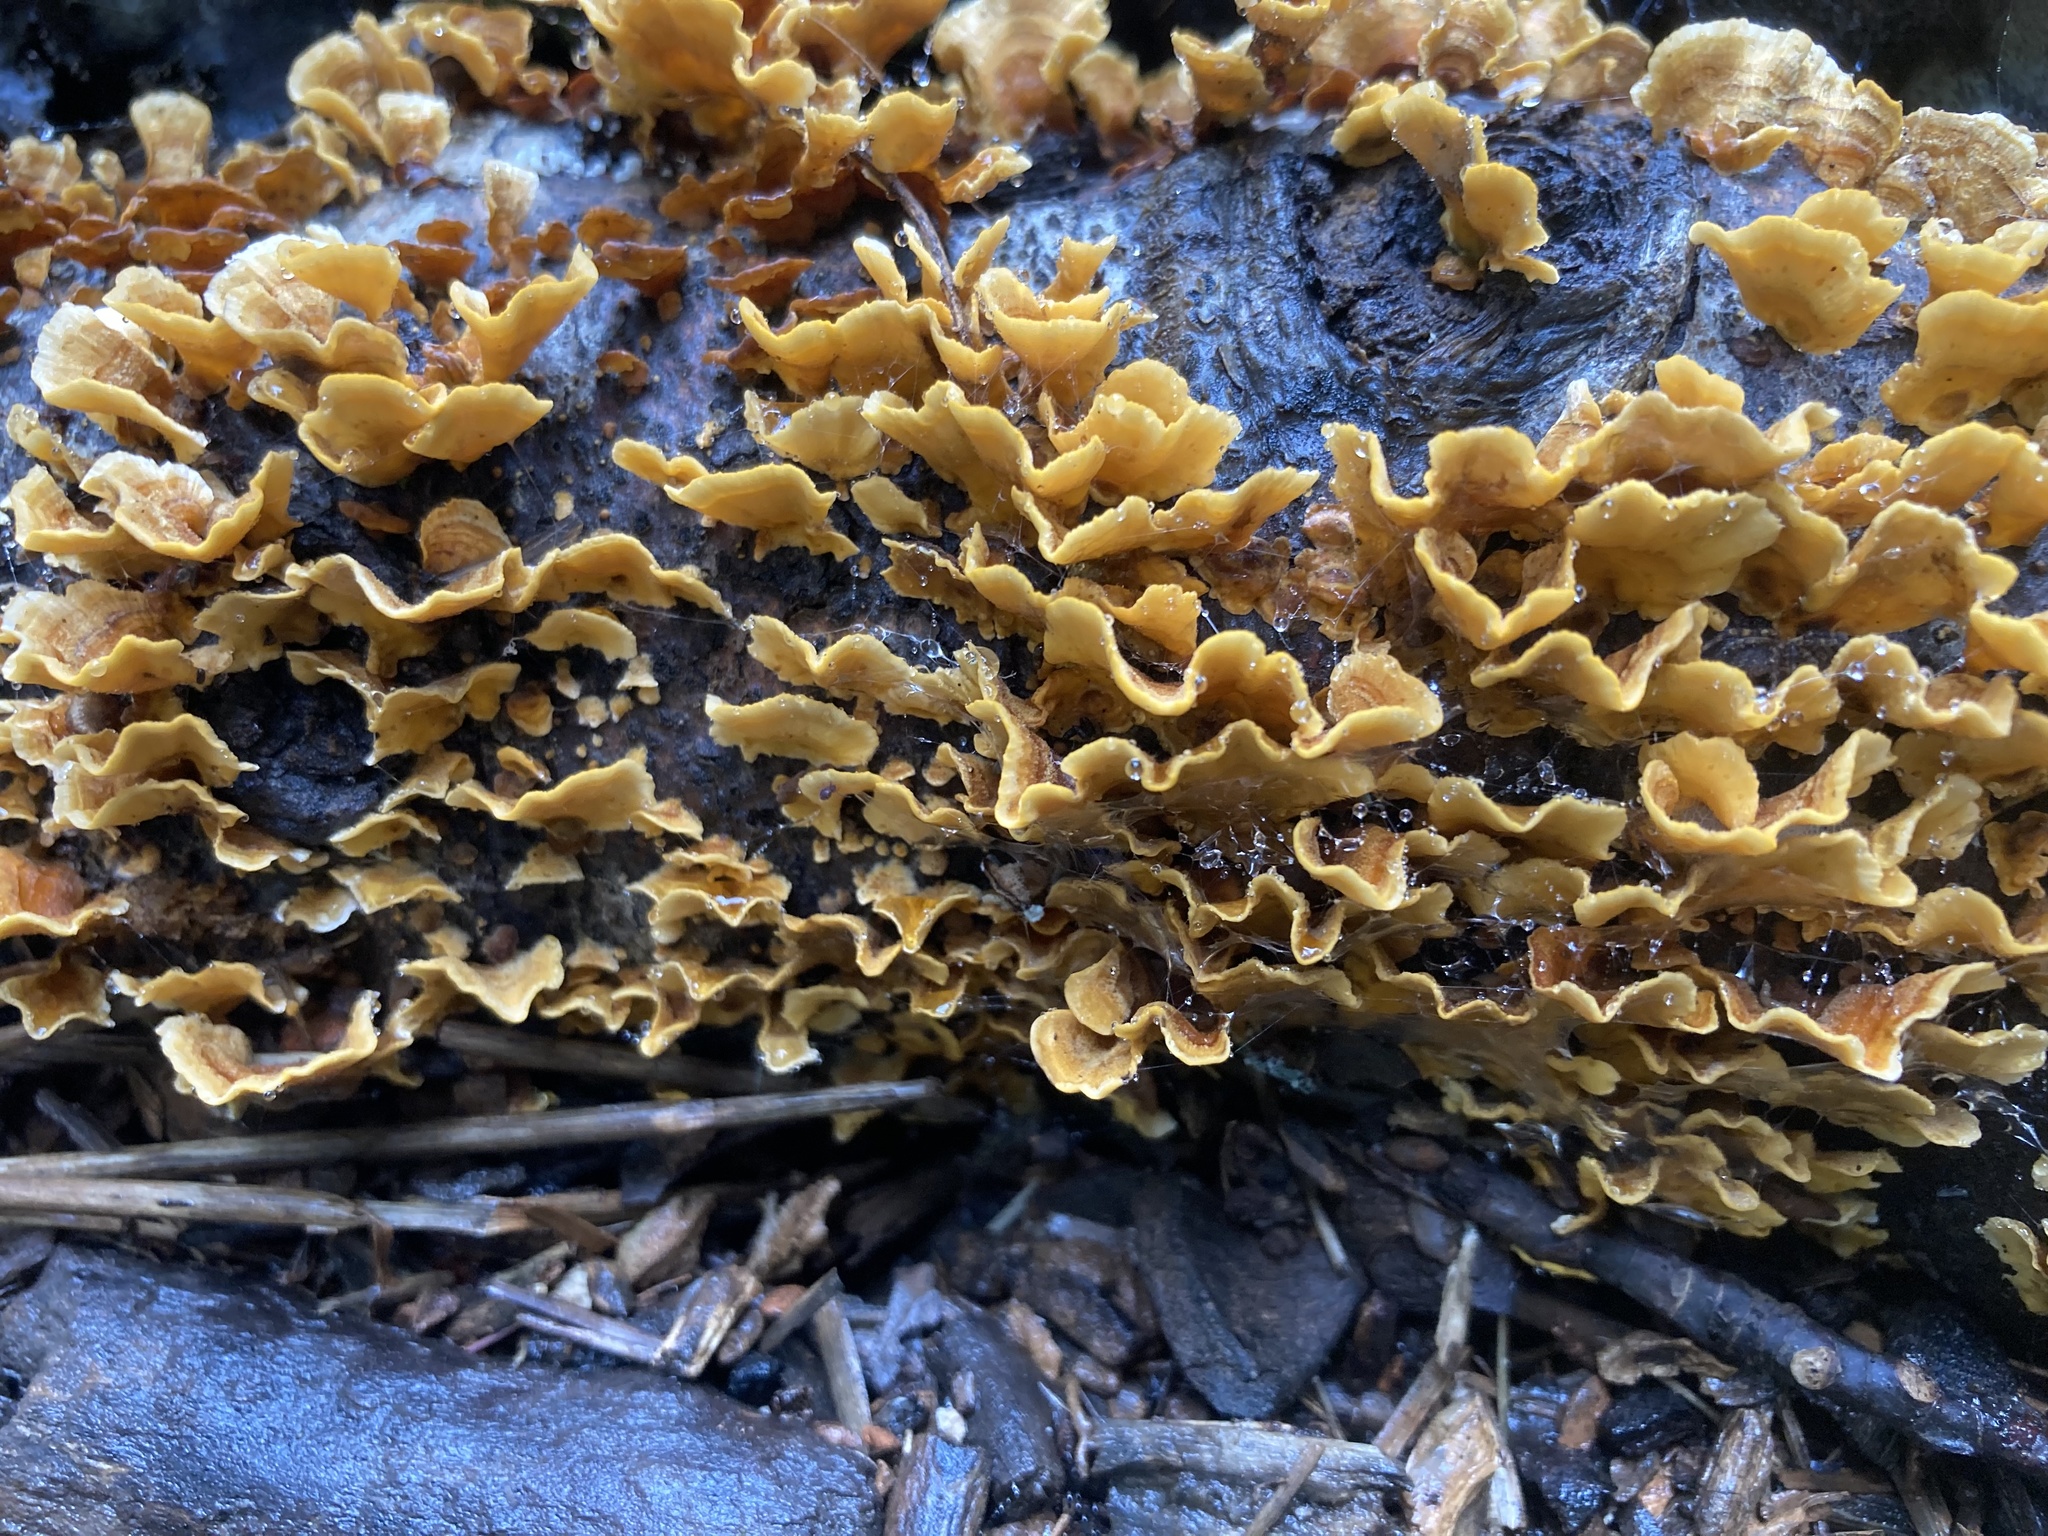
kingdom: Fungi
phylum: Basidiomycota
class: Agaricomycetes
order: Russulales
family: Stereaceae
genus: Stereum
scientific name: Stereum complicatum
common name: Crowded parchment
